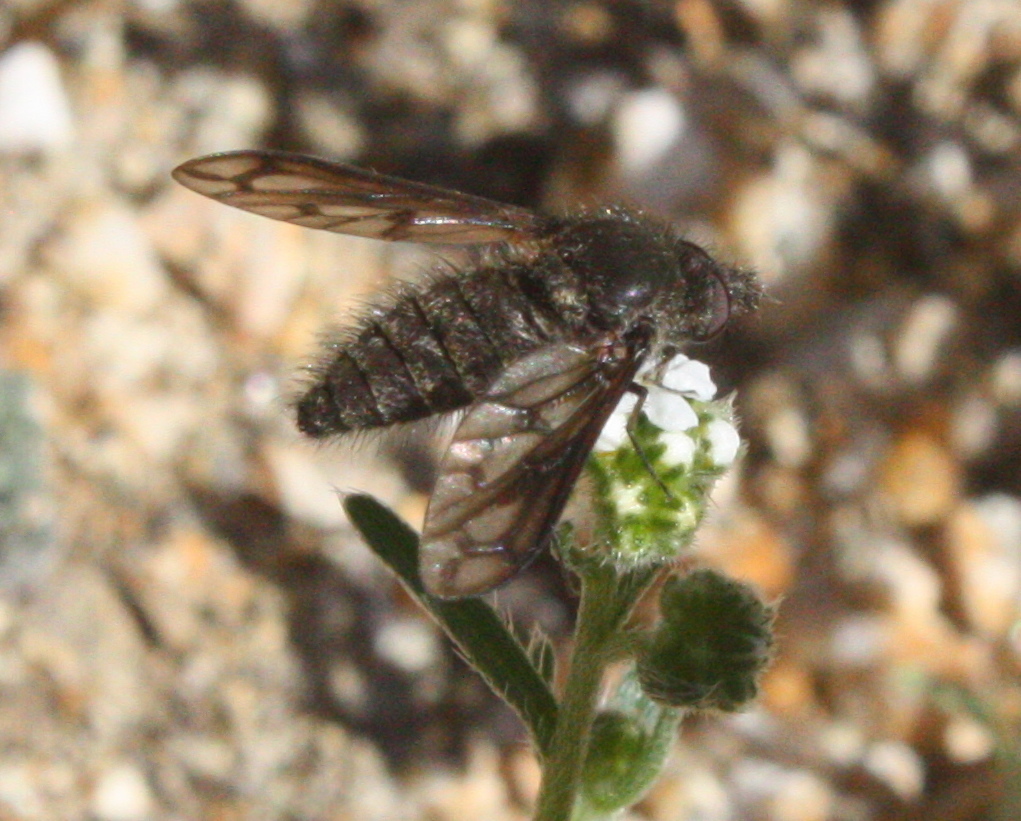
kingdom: Animalia
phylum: Arthropoda
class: Insecta
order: Diptera
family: Bombyliidae
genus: Conophorus
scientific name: Conophorus fenestratus
